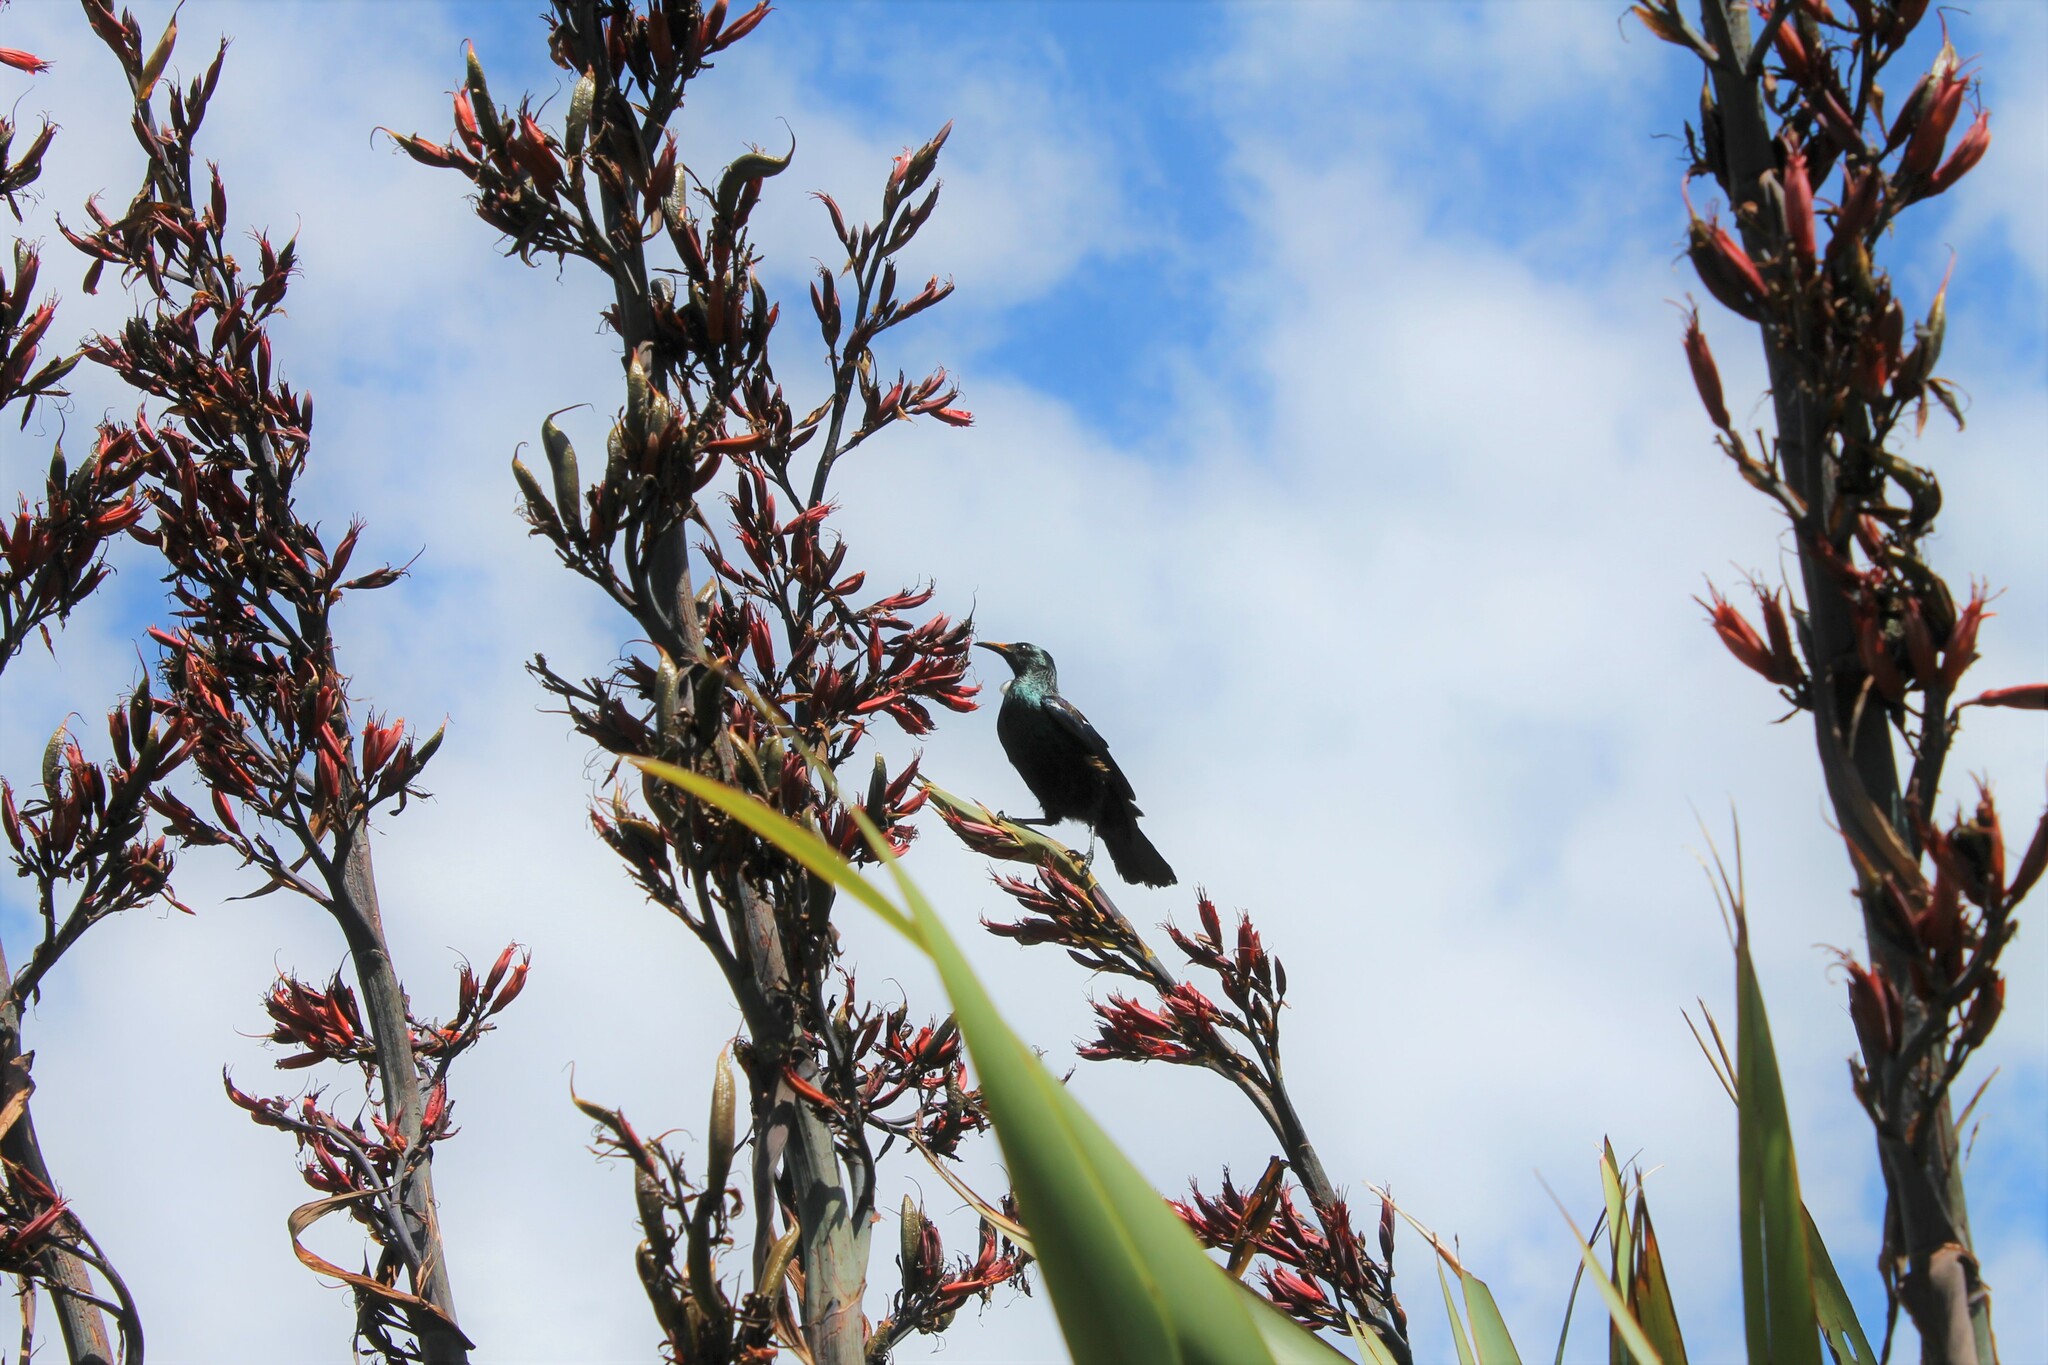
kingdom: Animalia
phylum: Chordata
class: Aves
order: Passeriformes
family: Meliphagidae
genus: Prosthemadera
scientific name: Prosthemadera novaeseelandiae
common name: Tui
